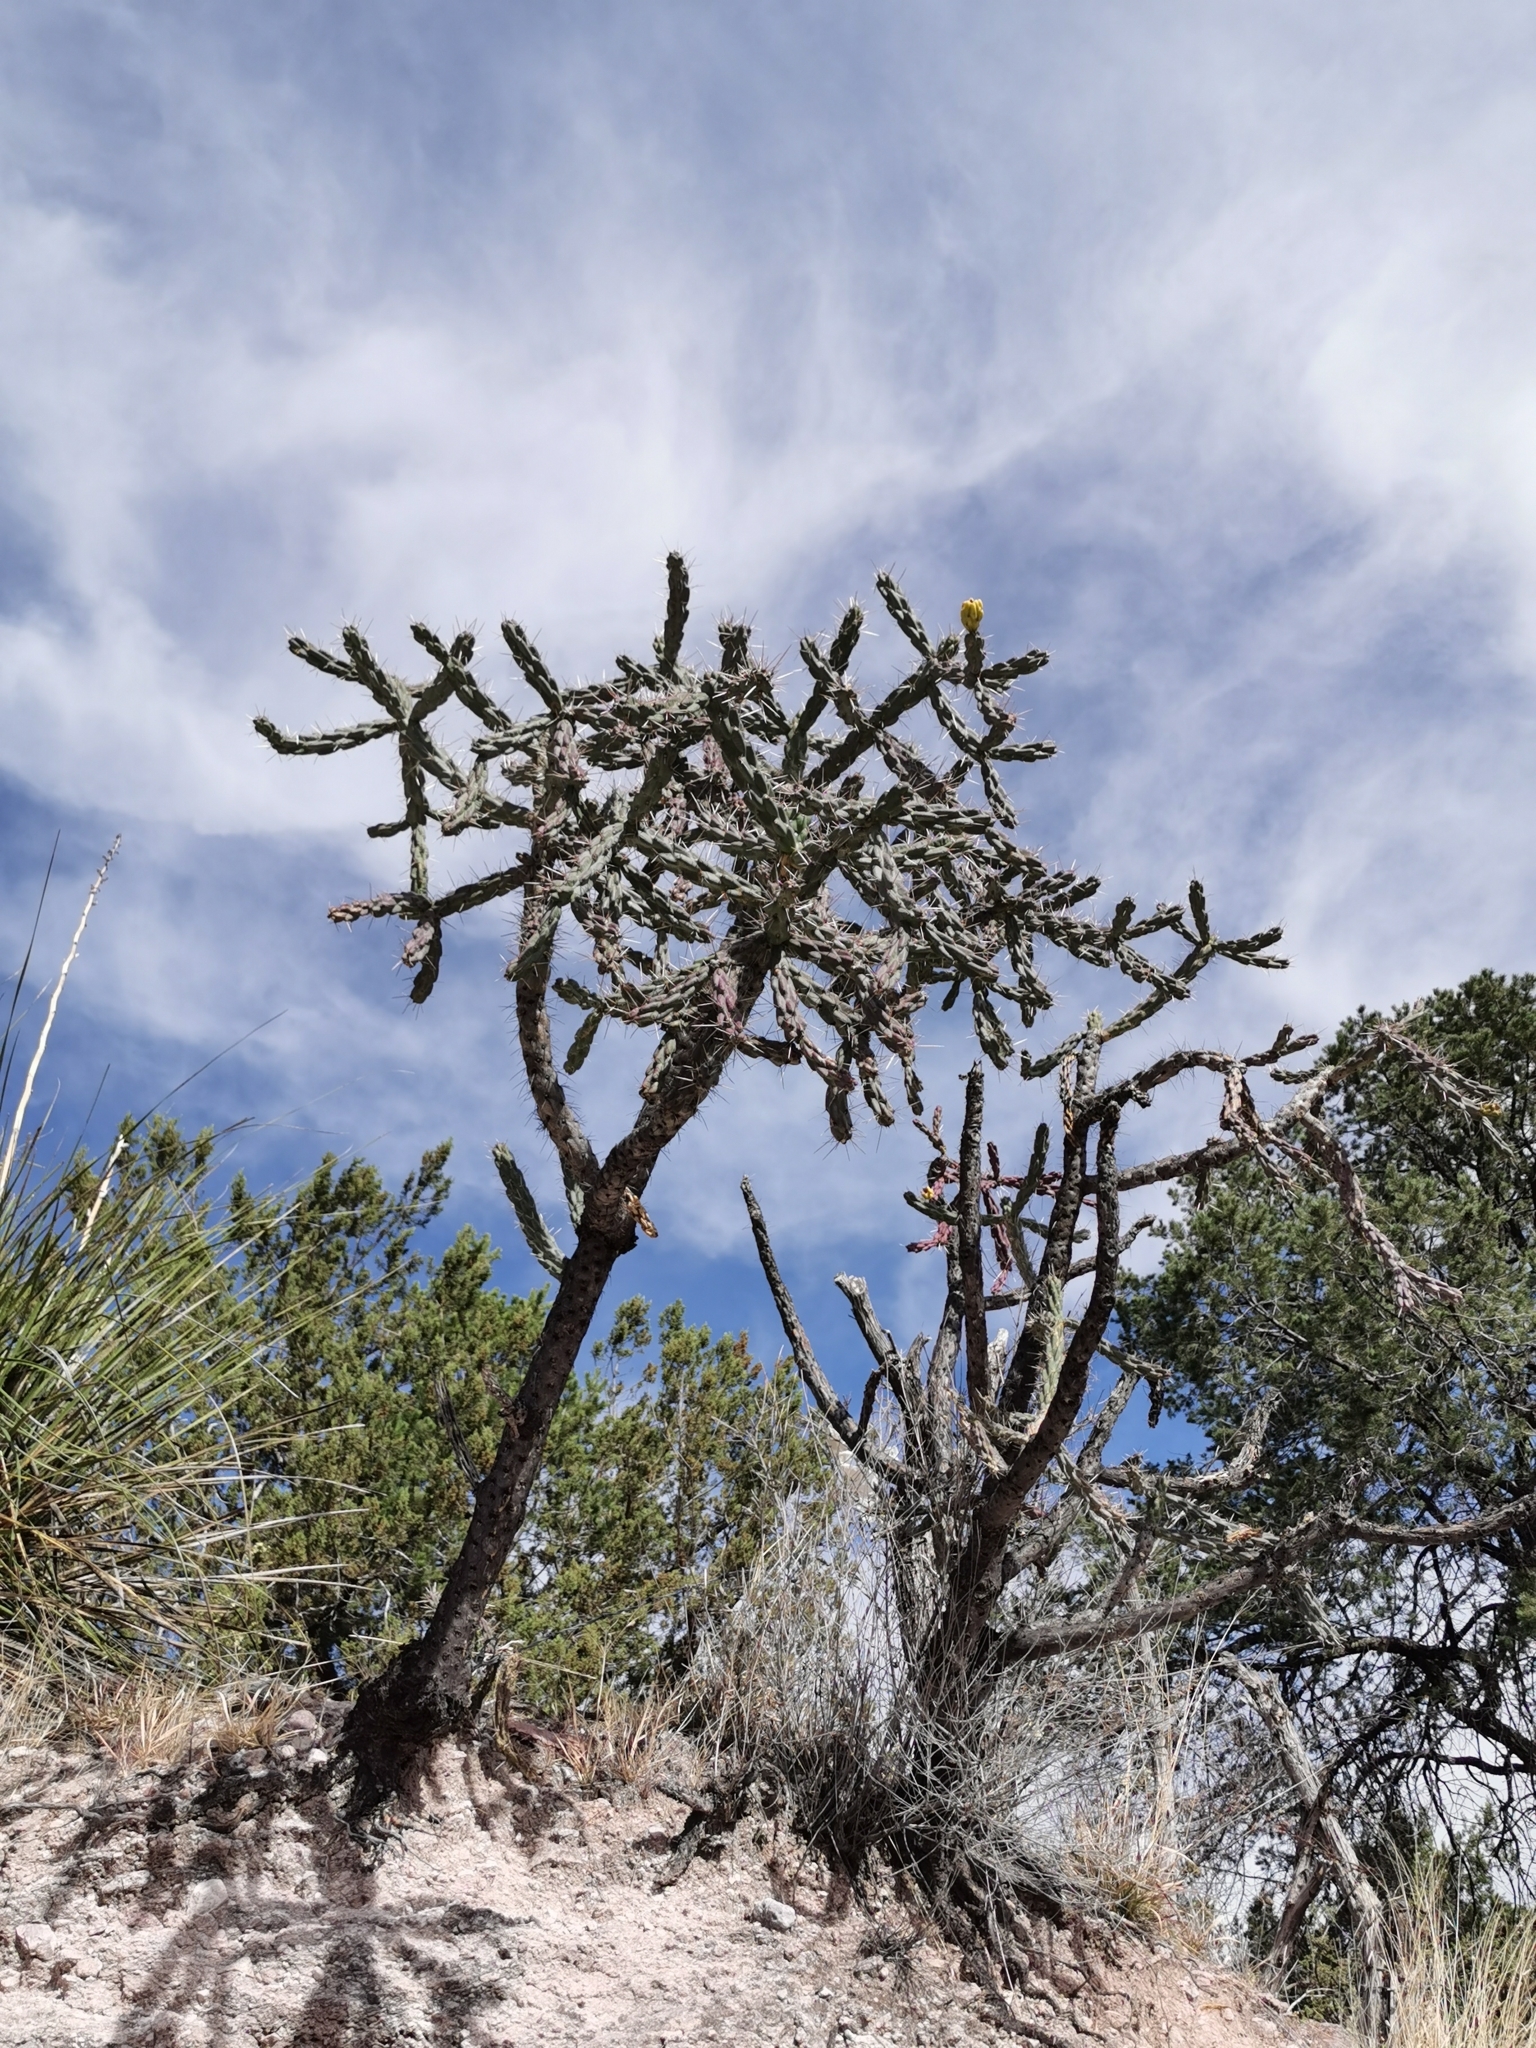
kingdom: Plantae
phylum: Tracheophyta
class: Magnoliopsida
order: Caryophyllales
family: Cactaceae
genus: Cylindropuntia
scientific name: Cylindropuntia imbricata
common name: Candelabrum cactus
